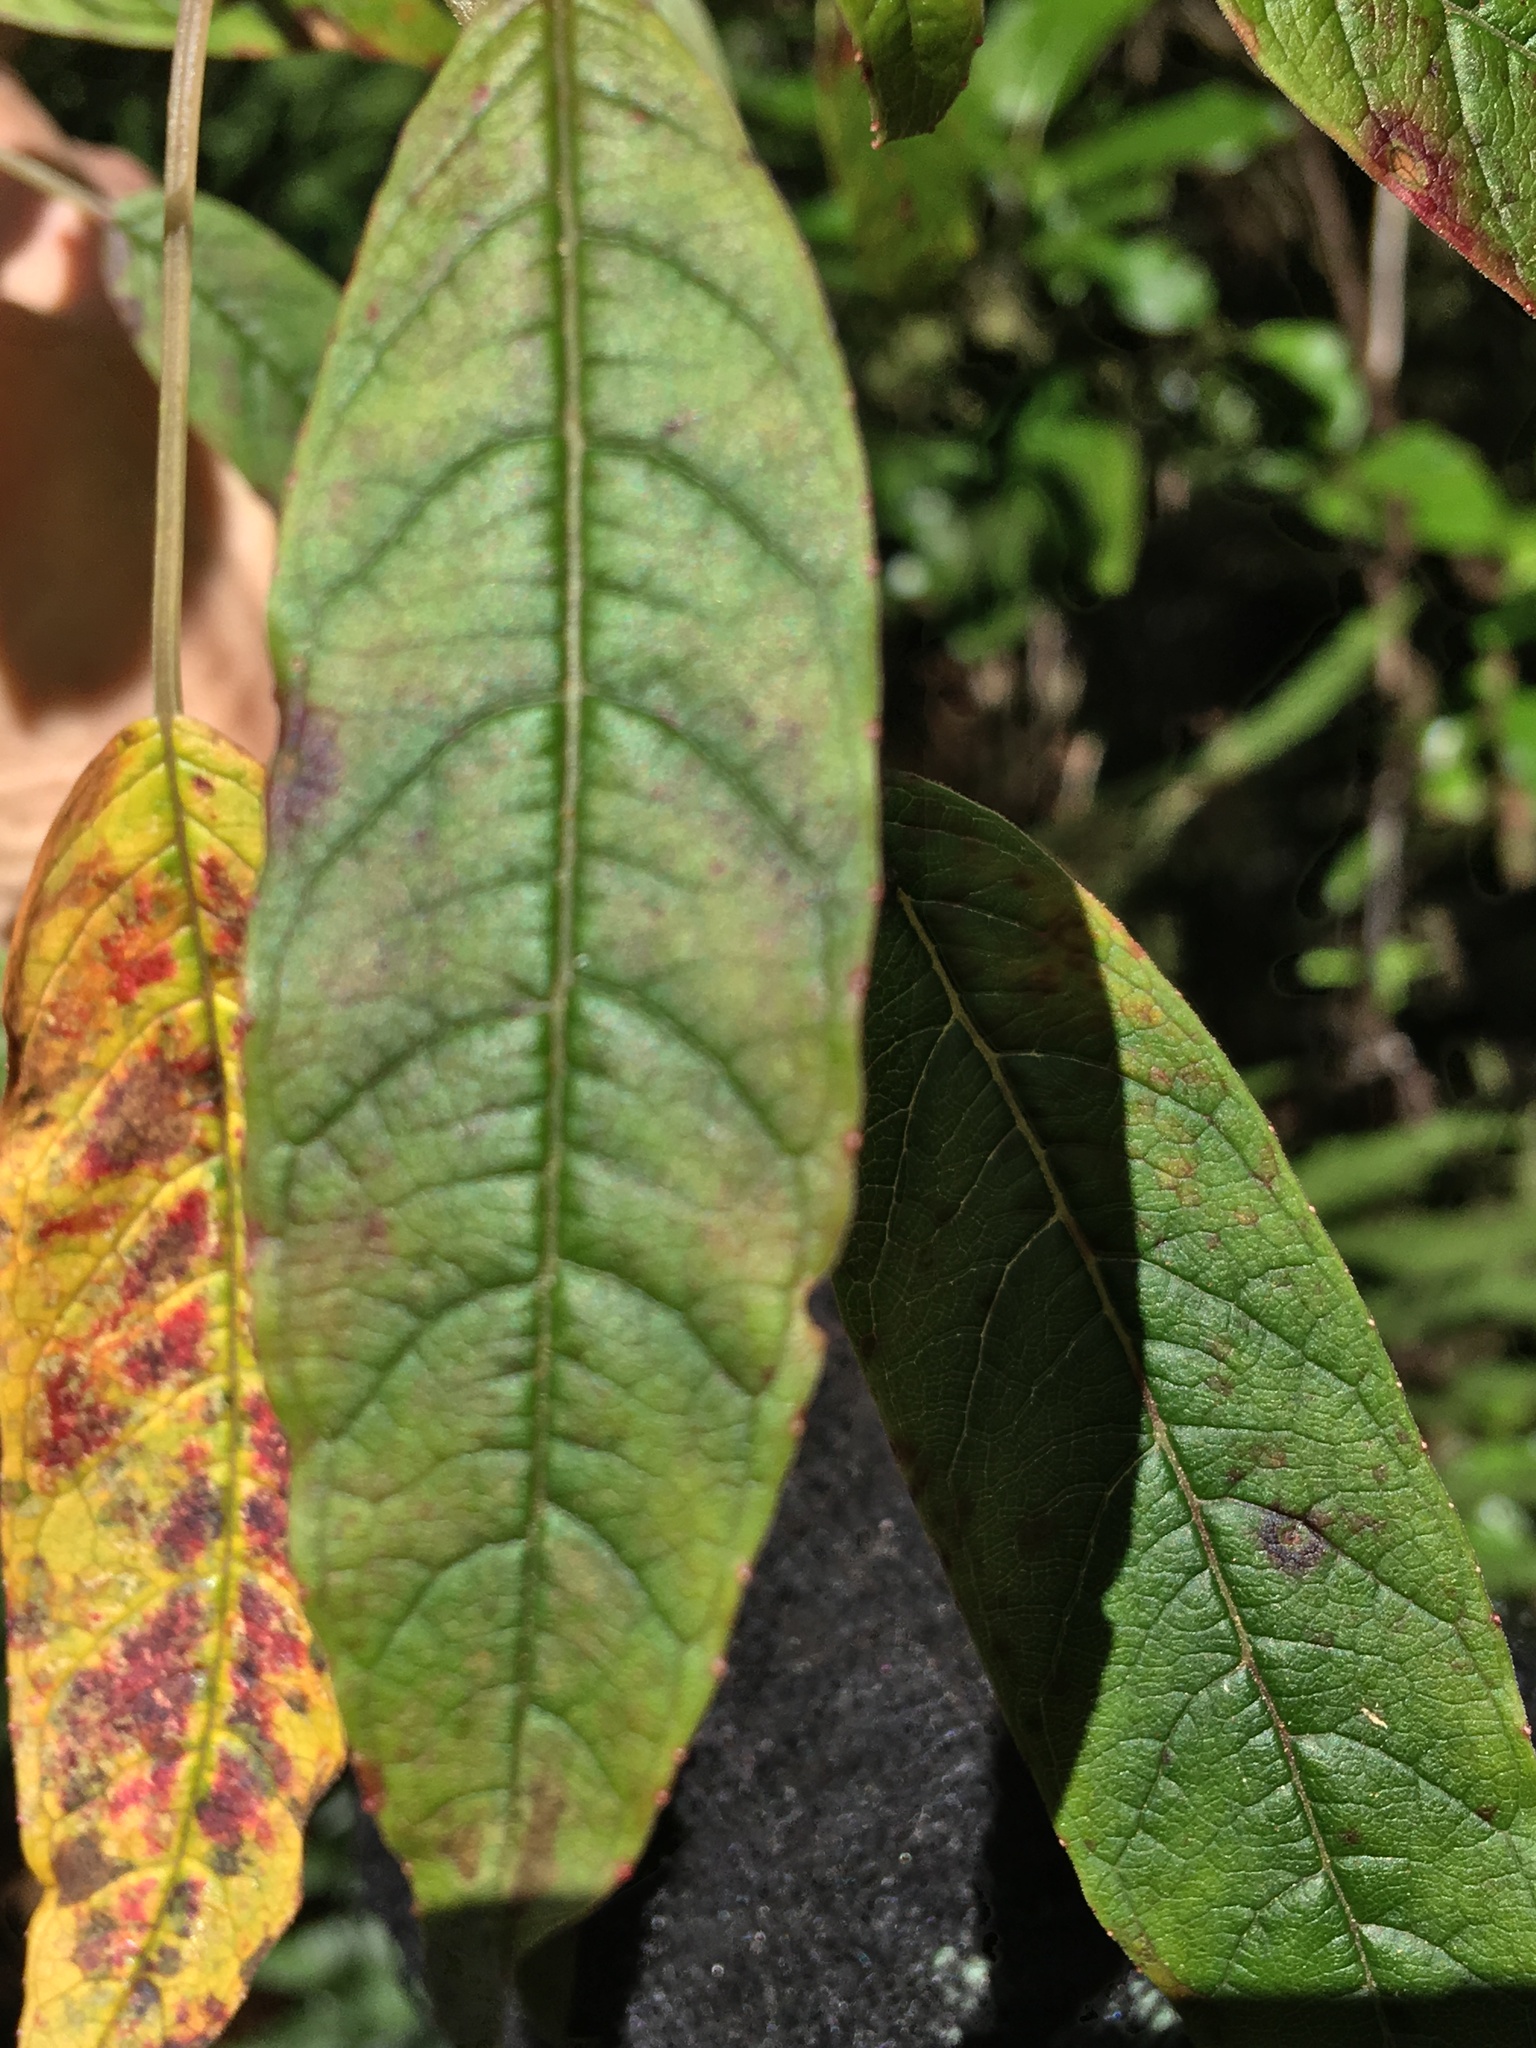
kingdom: Plantae
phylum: Tracheophyta
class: Magnoliopsida
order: Myrtales
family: Onagraceae
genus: Fuchsia
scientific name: Fuchsia excorticata
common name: Tree fuchsia
